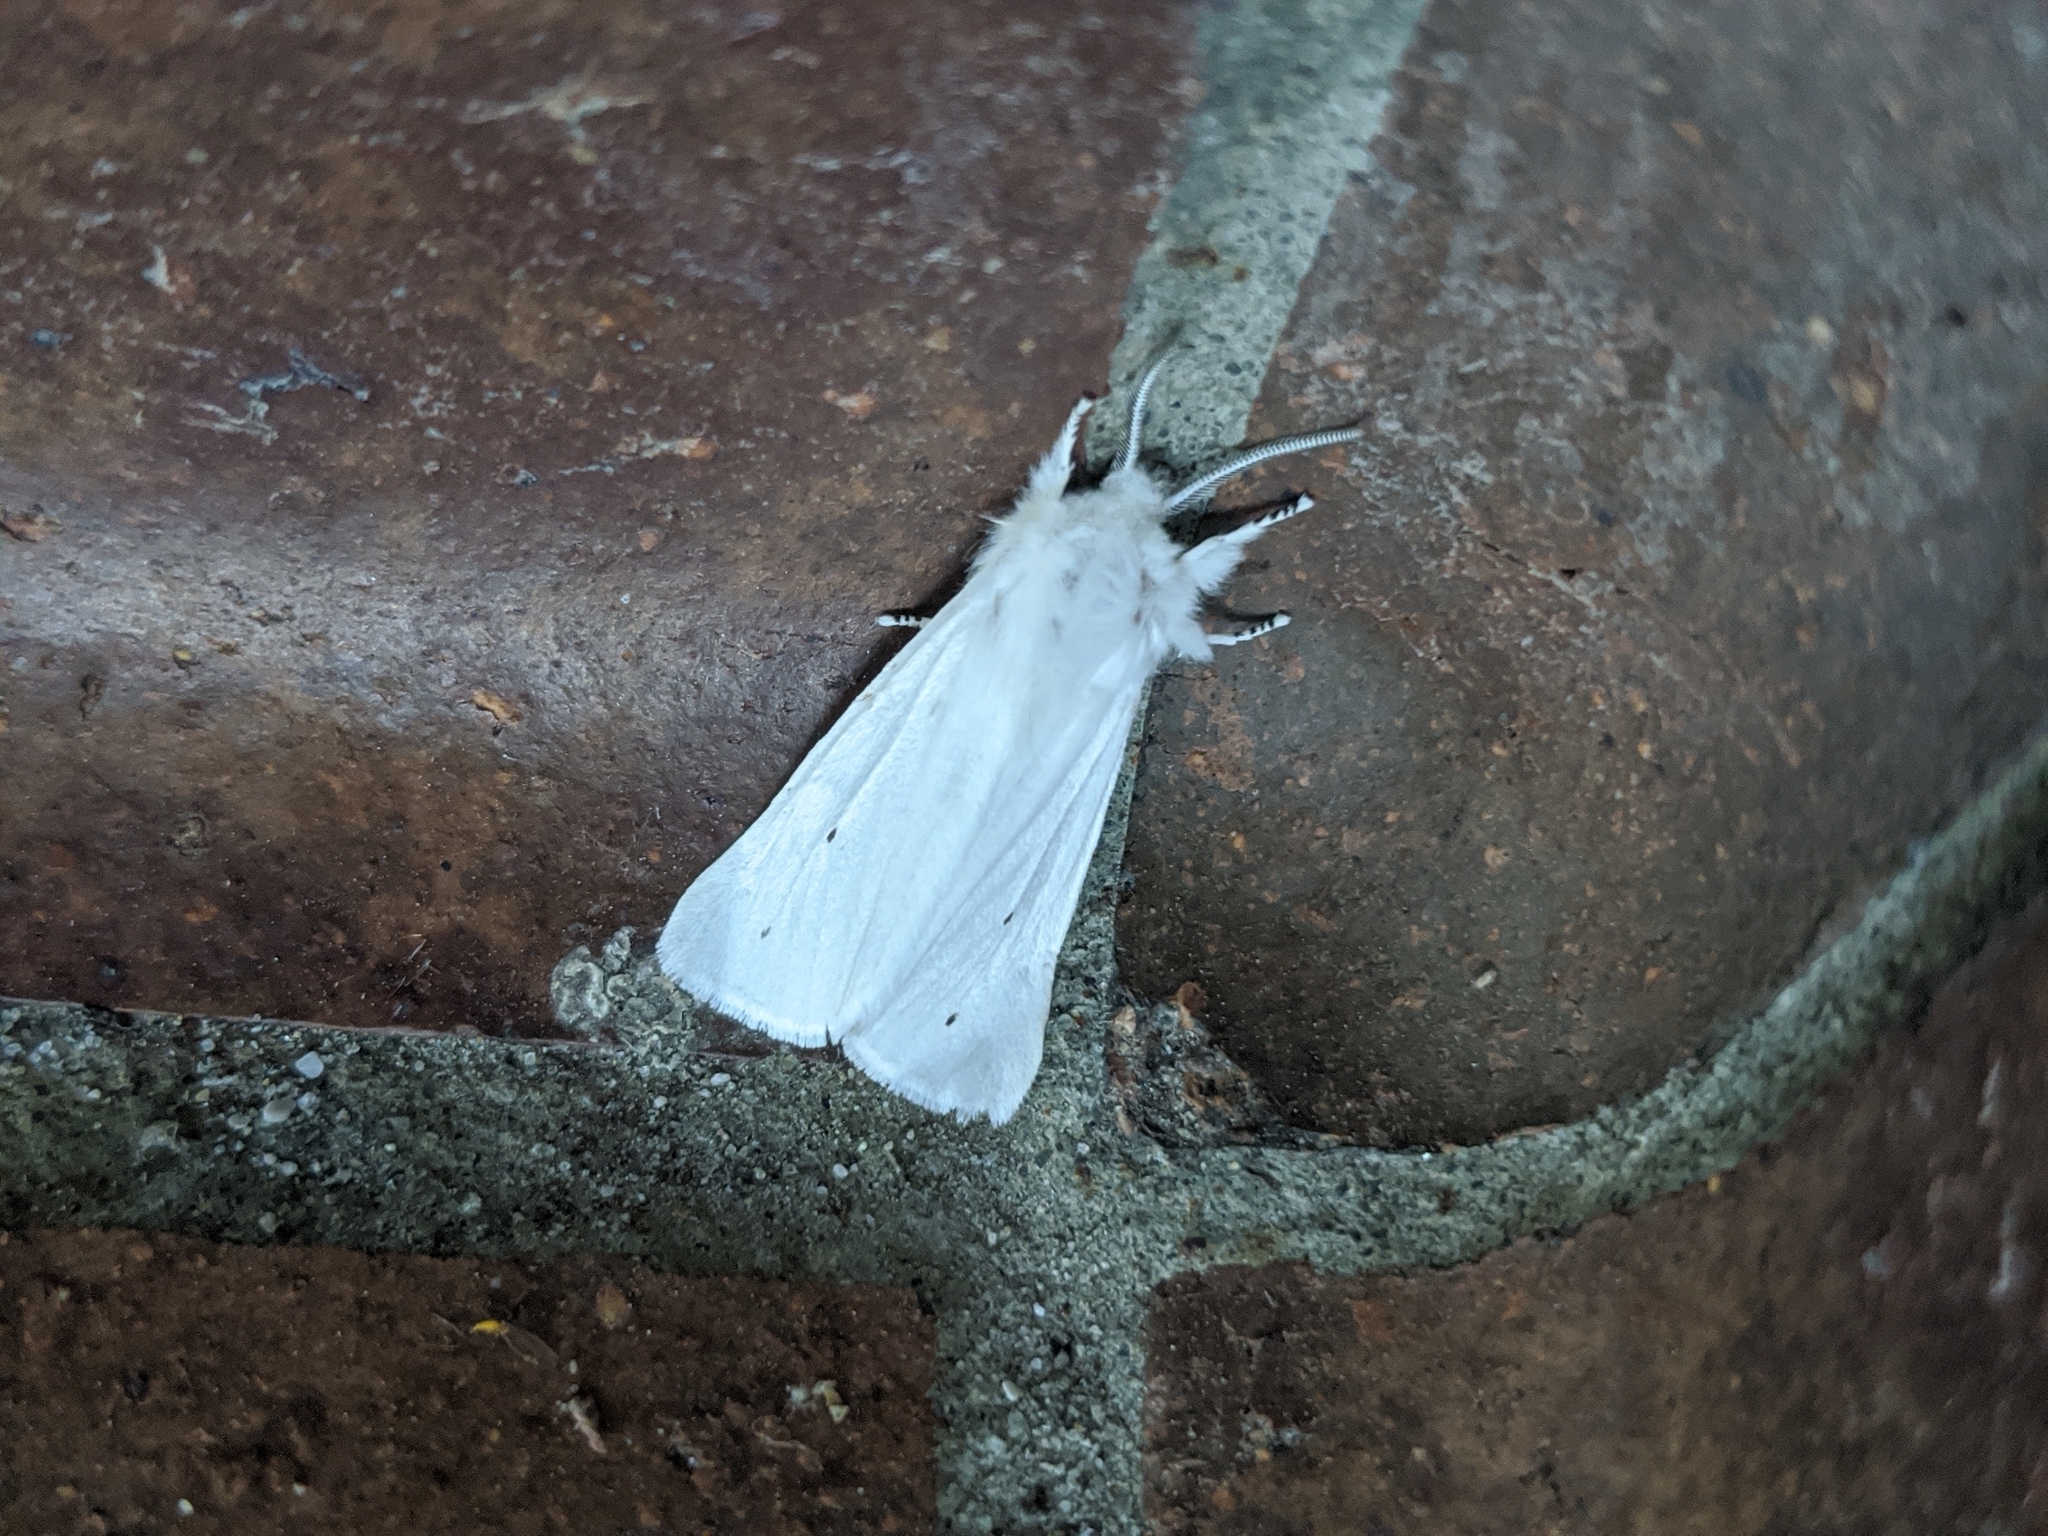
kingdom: Animalia
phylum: Arthropoda
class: Insecta
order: Lepidoptera
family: Erebidae
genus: Spilosoma
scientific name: Spilosoma virginica
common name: Virginia tiger moth
